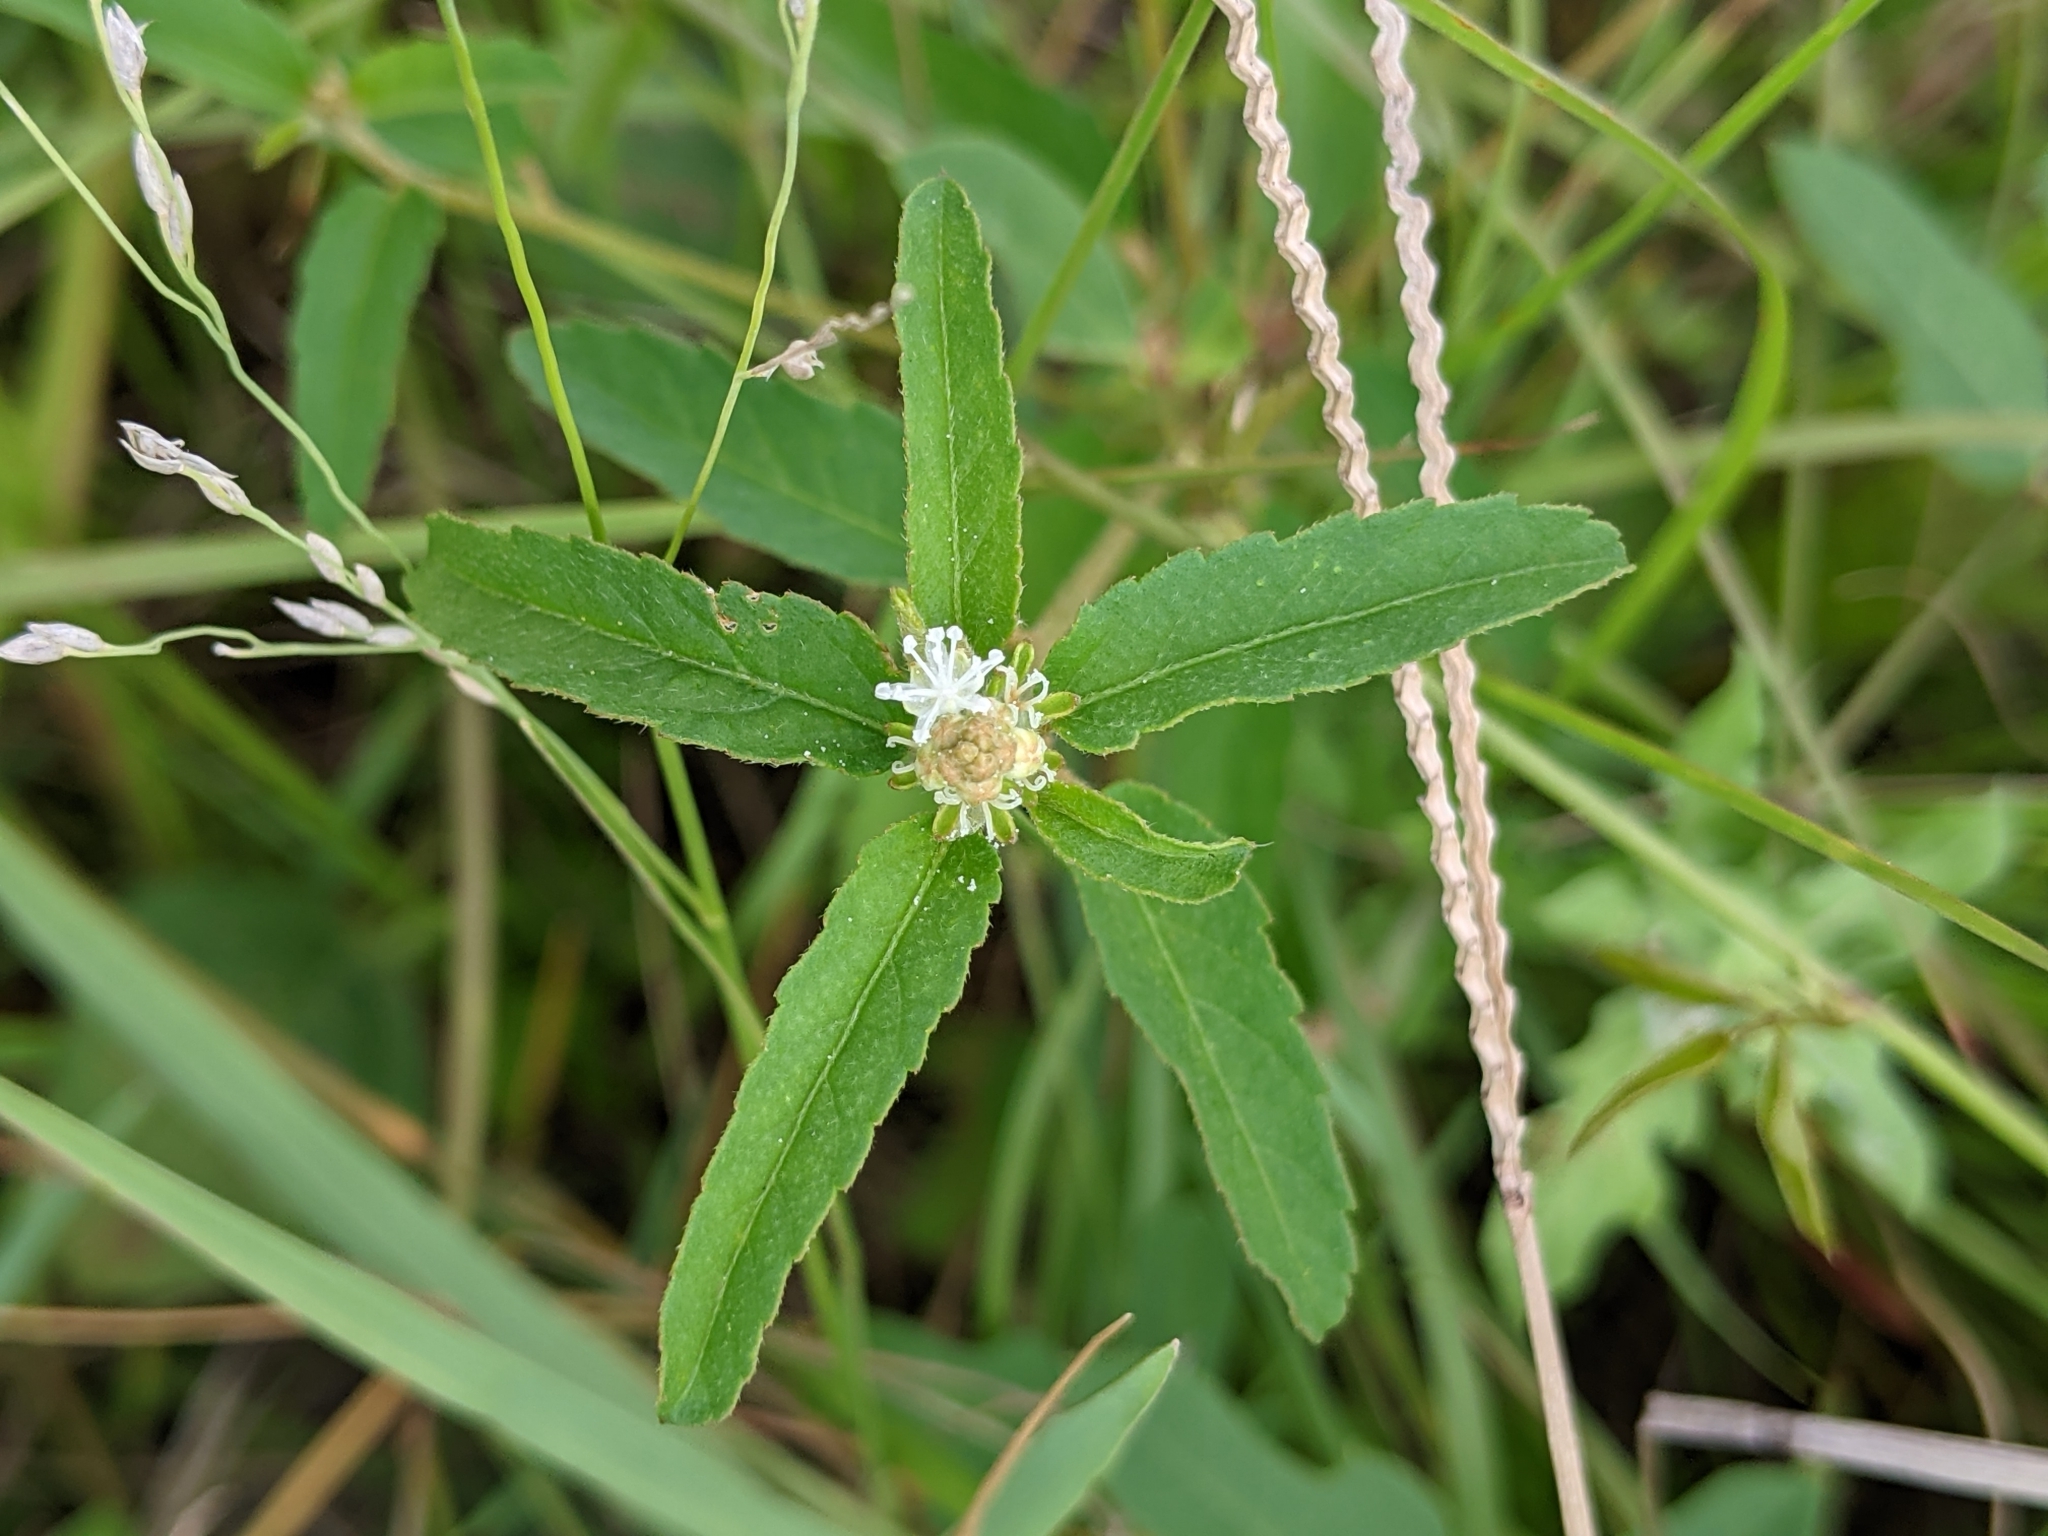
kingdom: Plantae
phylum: Tracheophyta
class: Magnoliopsida
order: Malpighiales
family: Euphorbiaceae
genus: Croton
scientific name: Croton glandulosus
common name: Tropic croton
